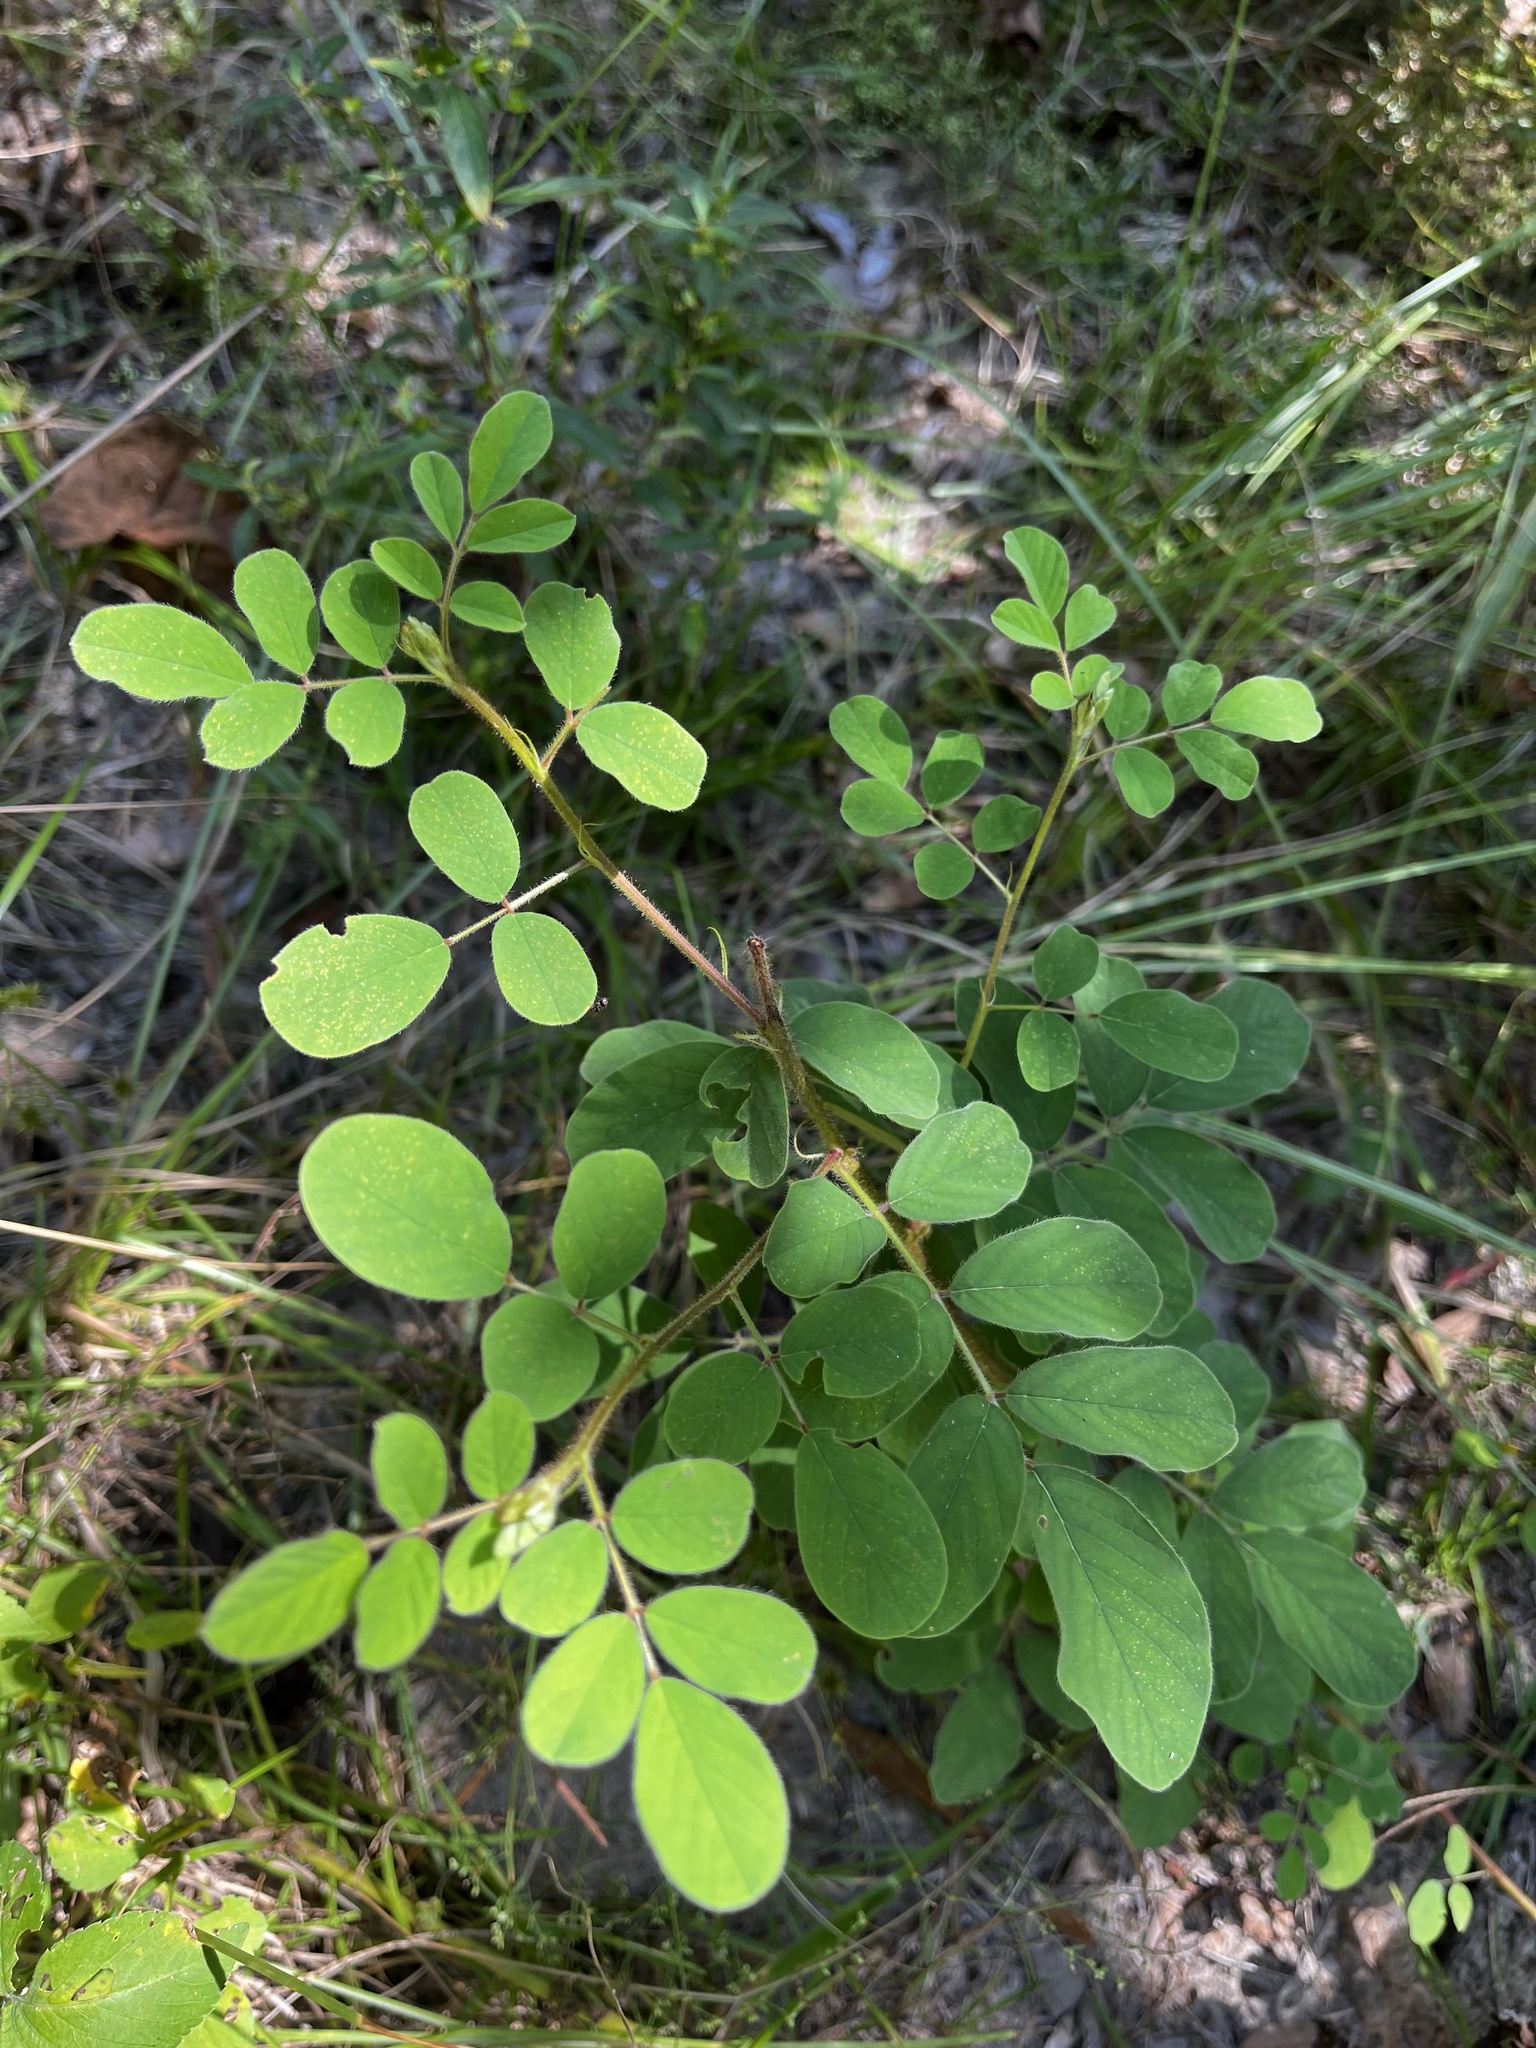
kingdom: Plantae
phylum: Tracheophyta
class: Magnoliopsida
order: Fabales
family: Fabaceae
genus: Indigofera
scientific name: Indigofera hirsuta
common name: Hairy indigo
